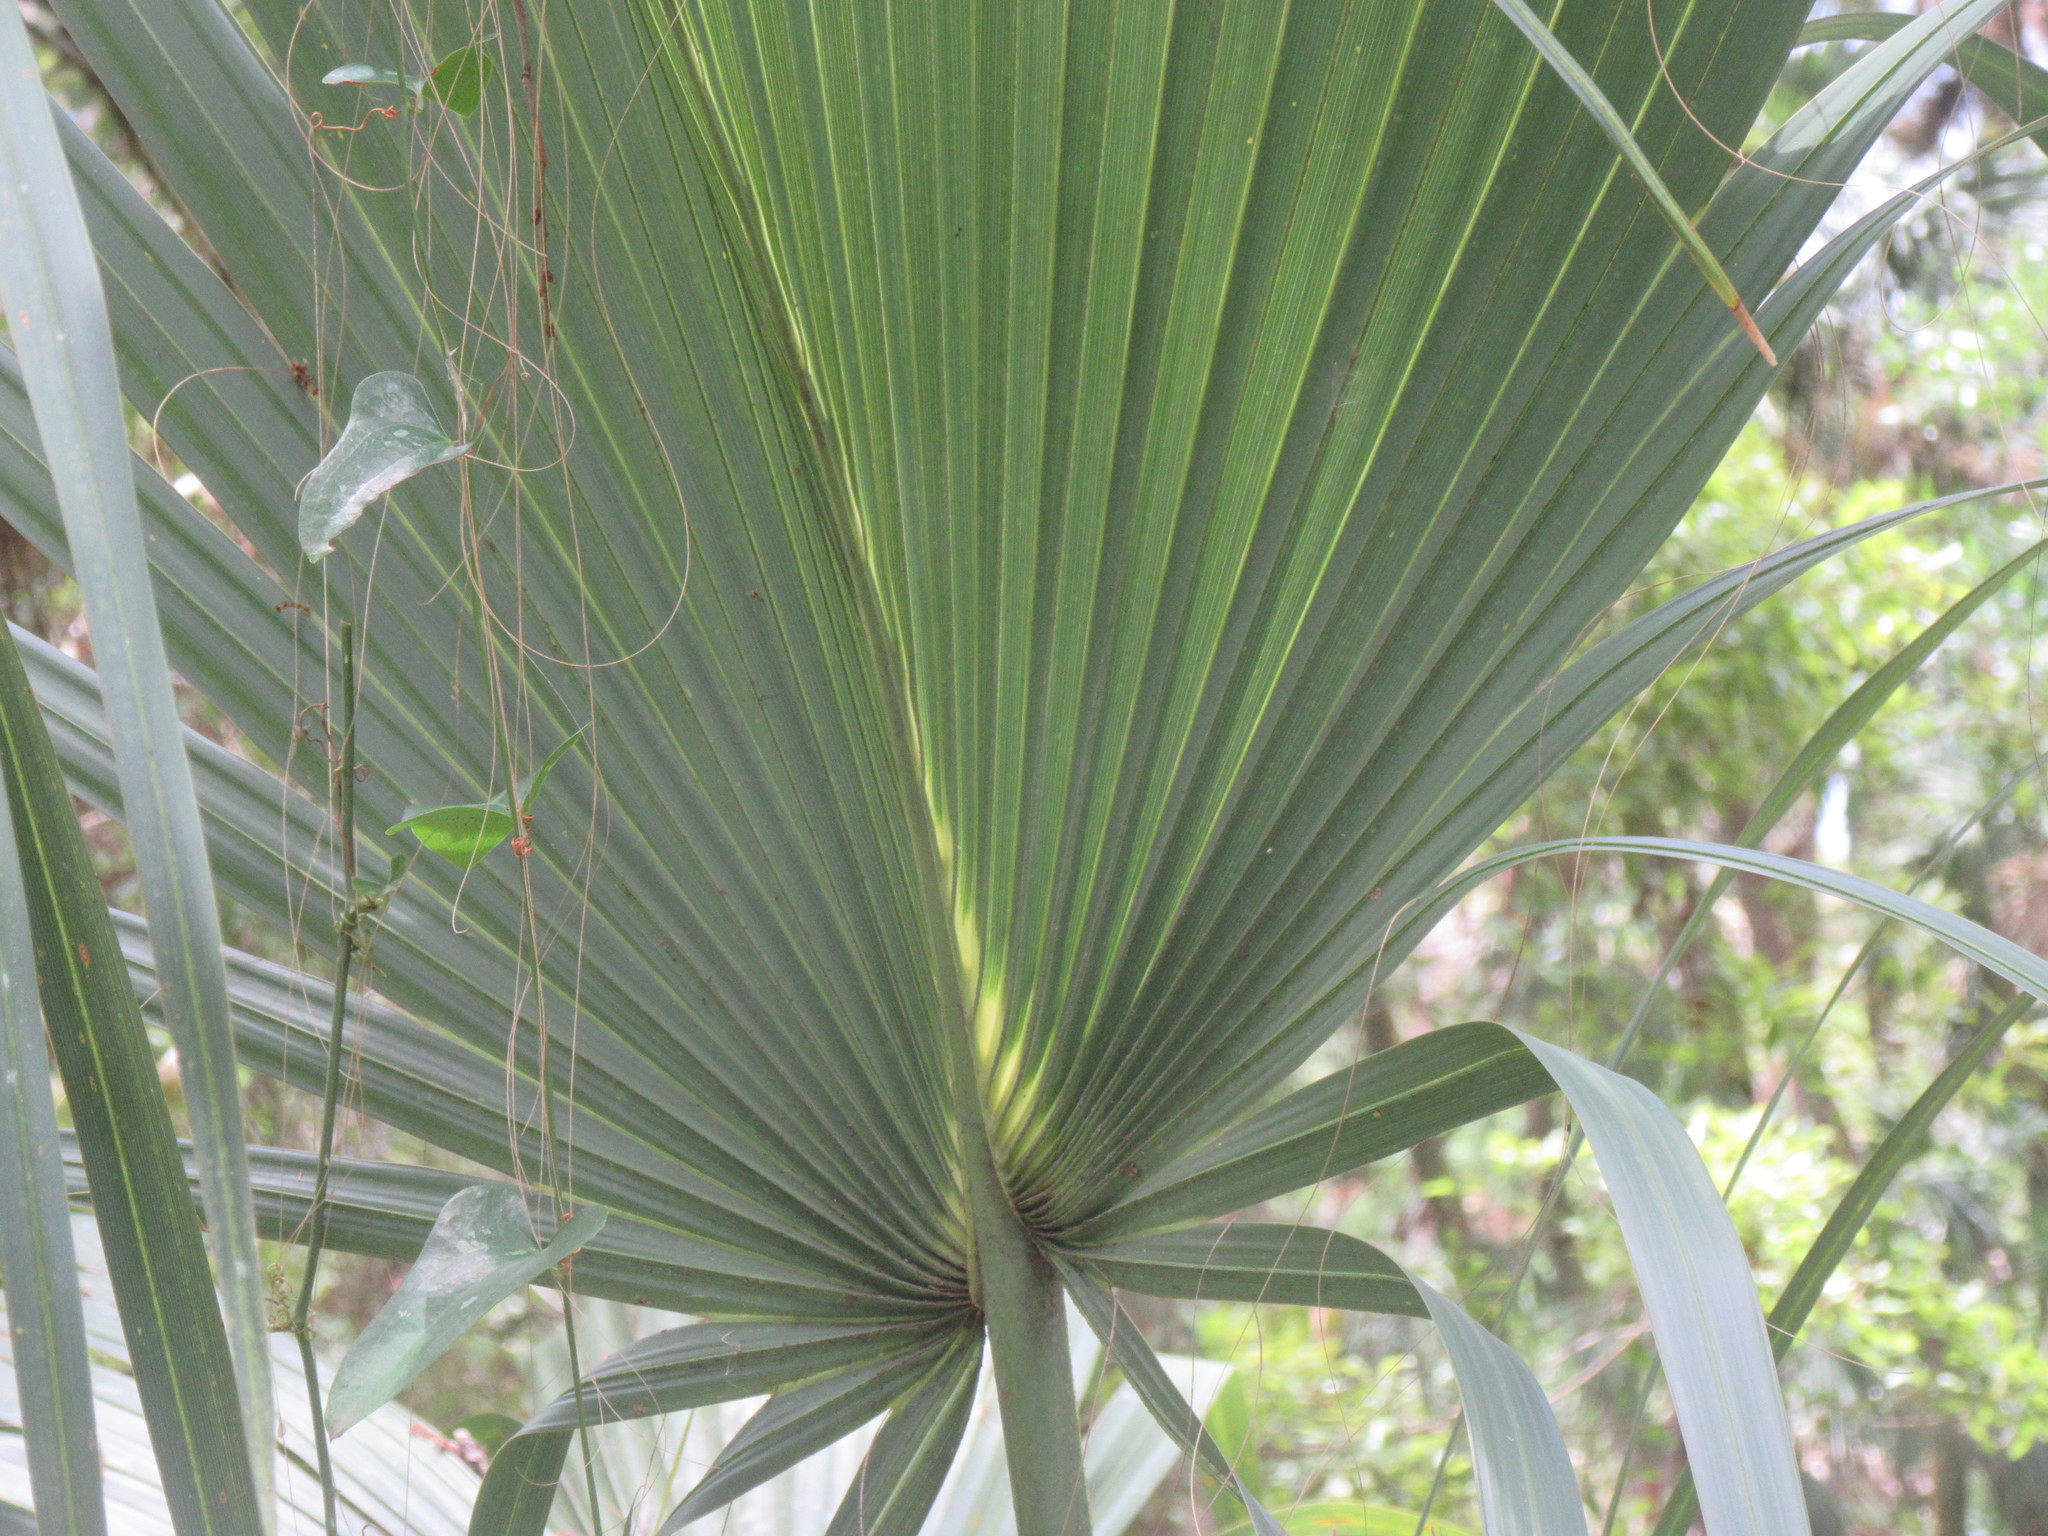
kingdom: Plantae
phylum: Tracheophyta
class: Liliopsida
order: Arecales
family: Arecaceae
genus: Sabal
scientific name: Sabal palmetto
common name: Blue palmetto
